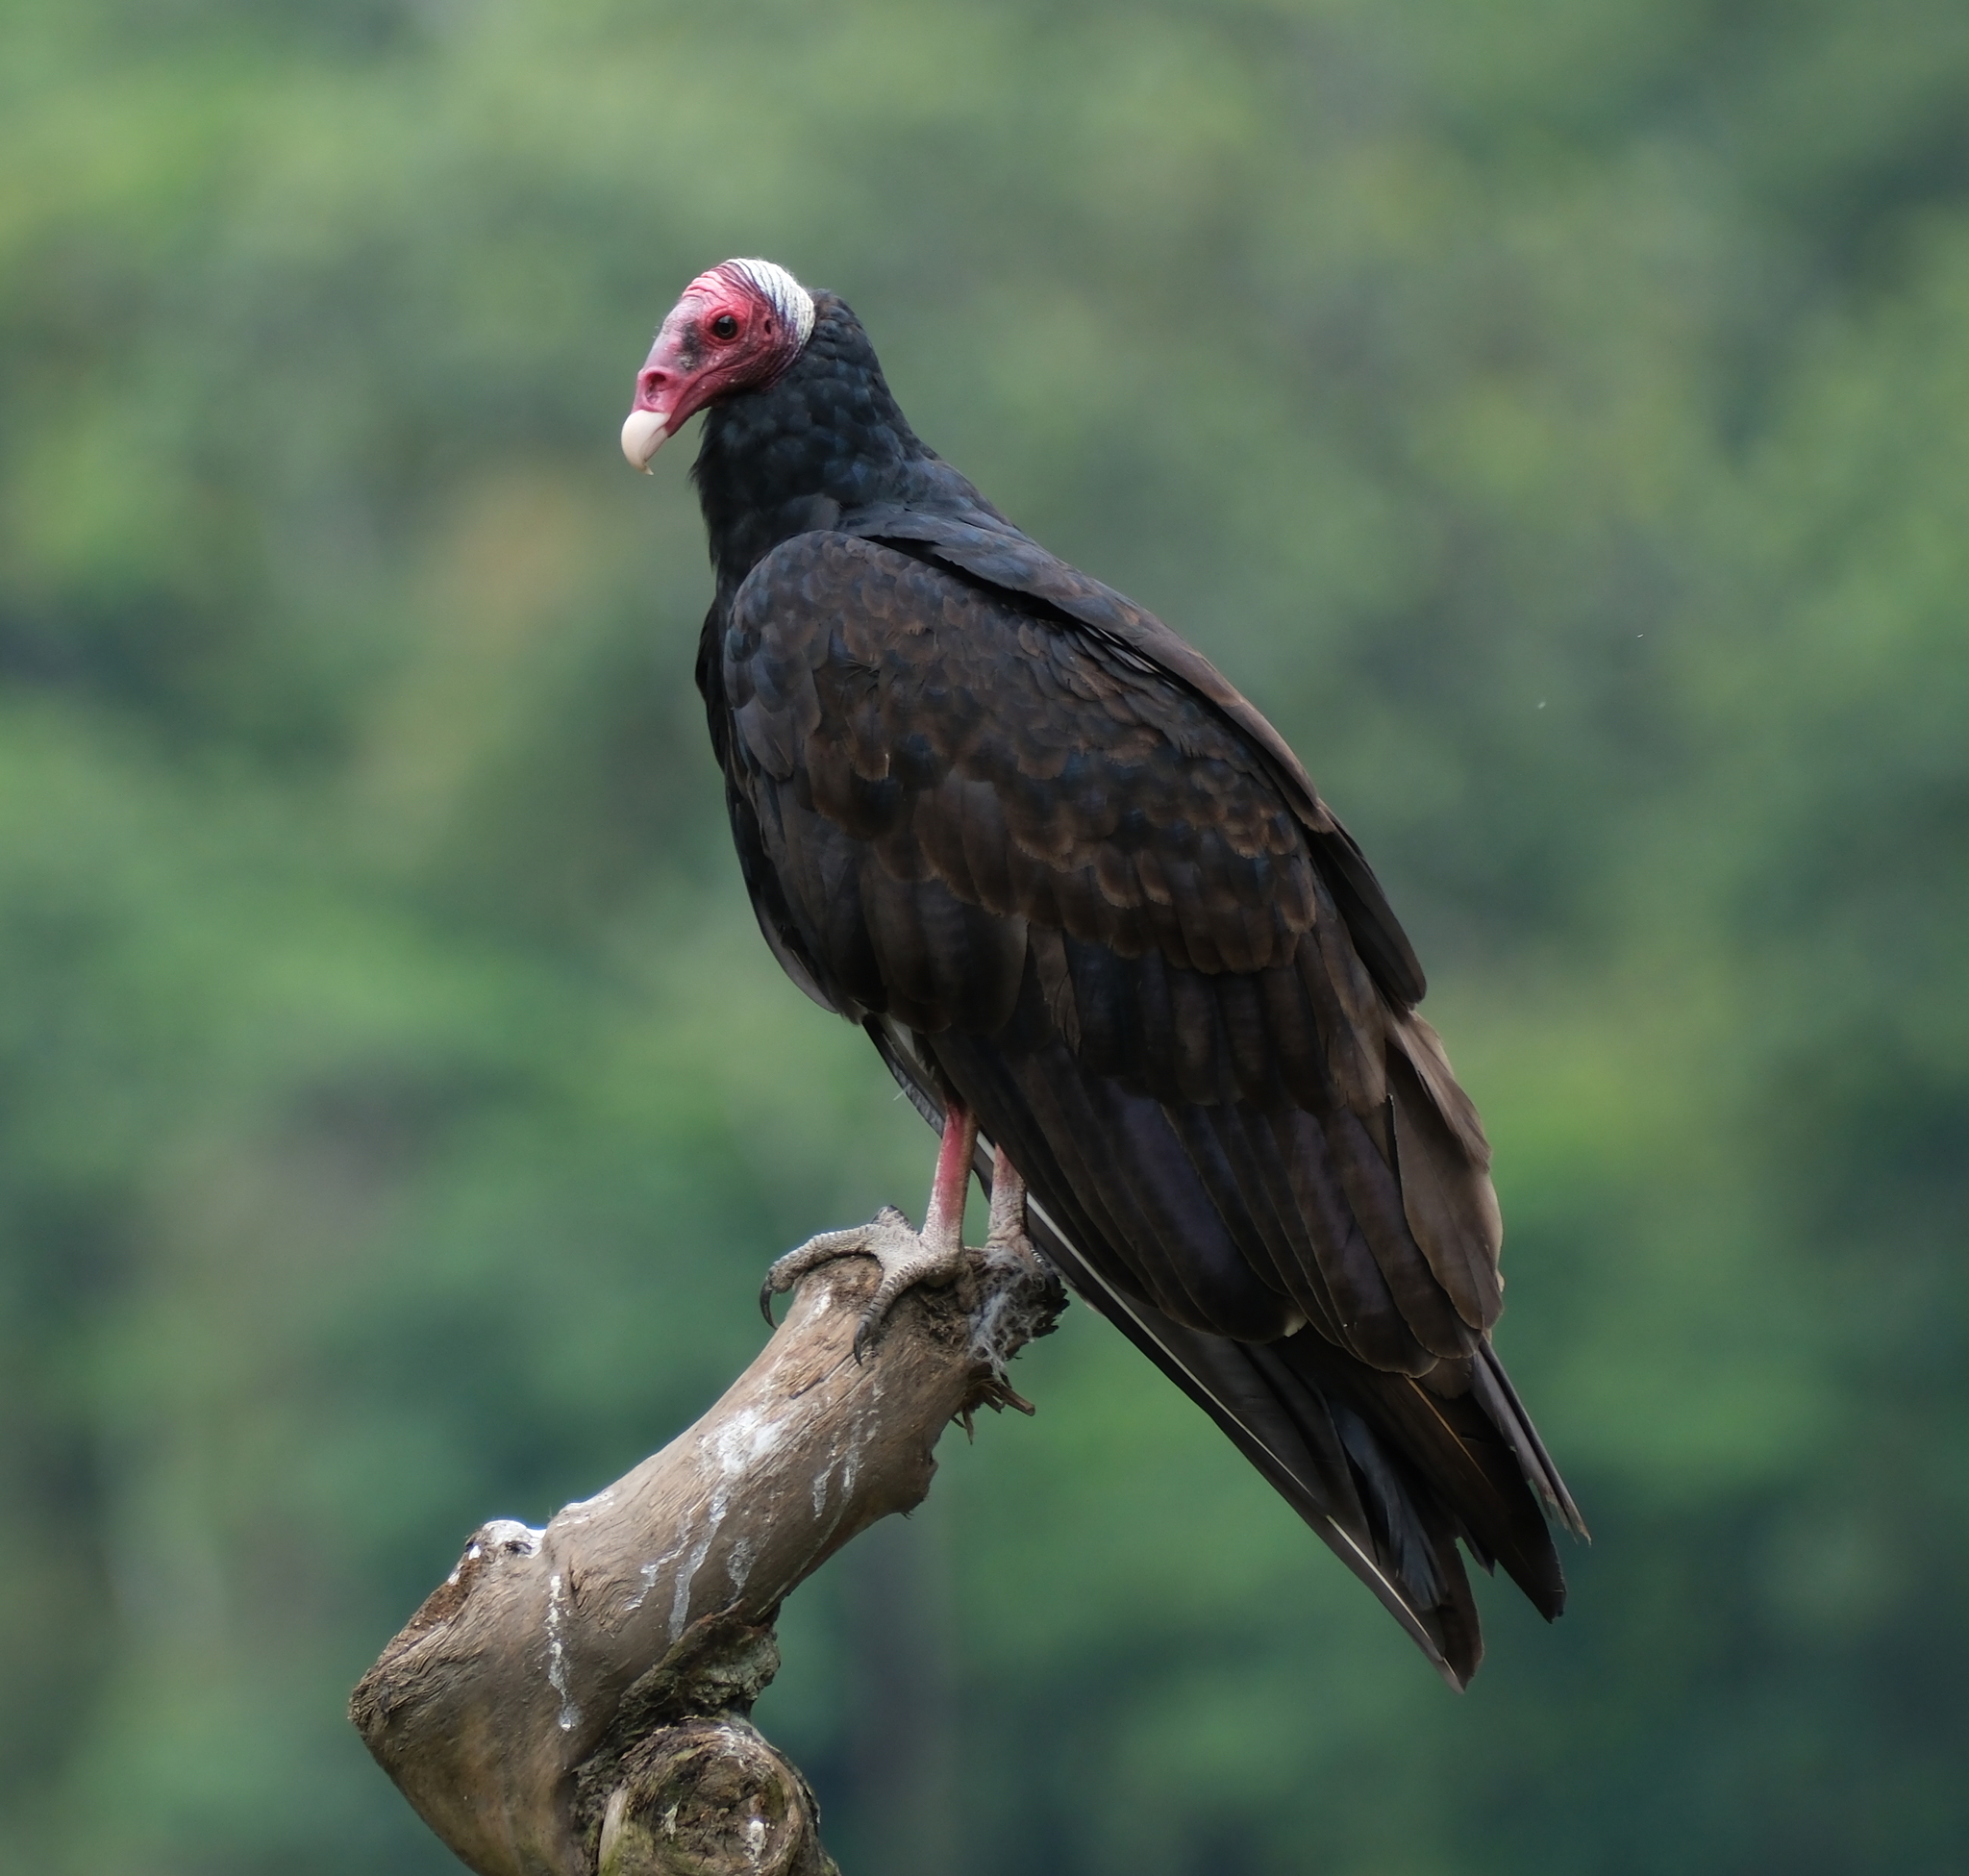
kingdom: Animalia
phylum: Chordata
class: Aves
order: Accipitriformes
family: Cathartidae
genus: Cathartes
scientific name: Cathartes aura
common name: Turkey vulture
